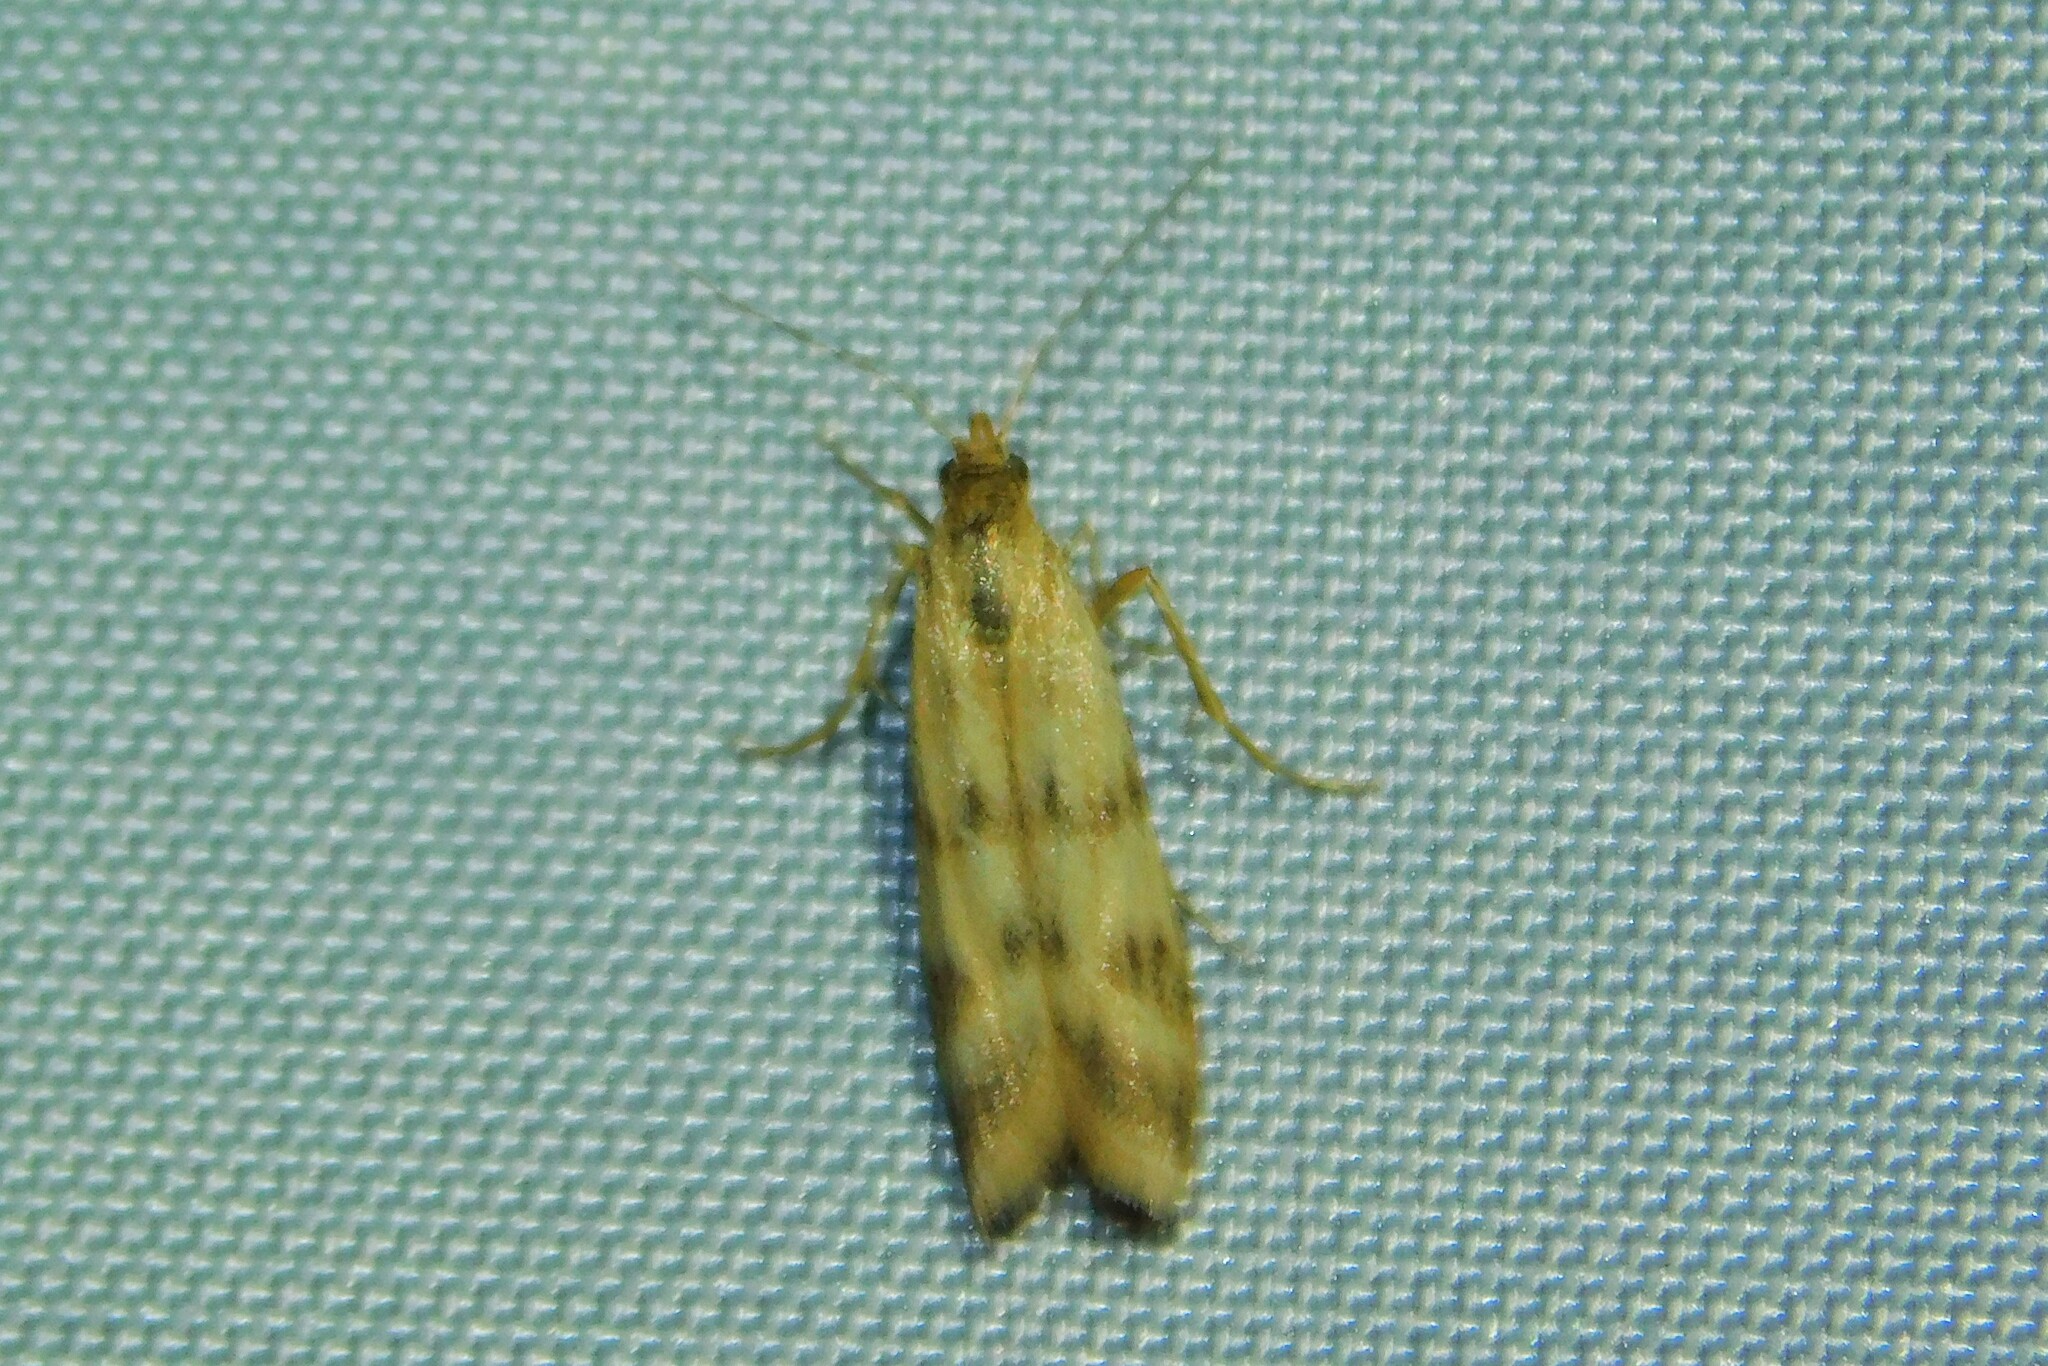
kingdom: Animalia
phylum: Arthropoda
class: Insecta
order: Lepidoptera
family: Pyralidae
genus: Homoeosoma
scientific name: Homoeosoma sinuella
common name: Twin-barred knot-horn
